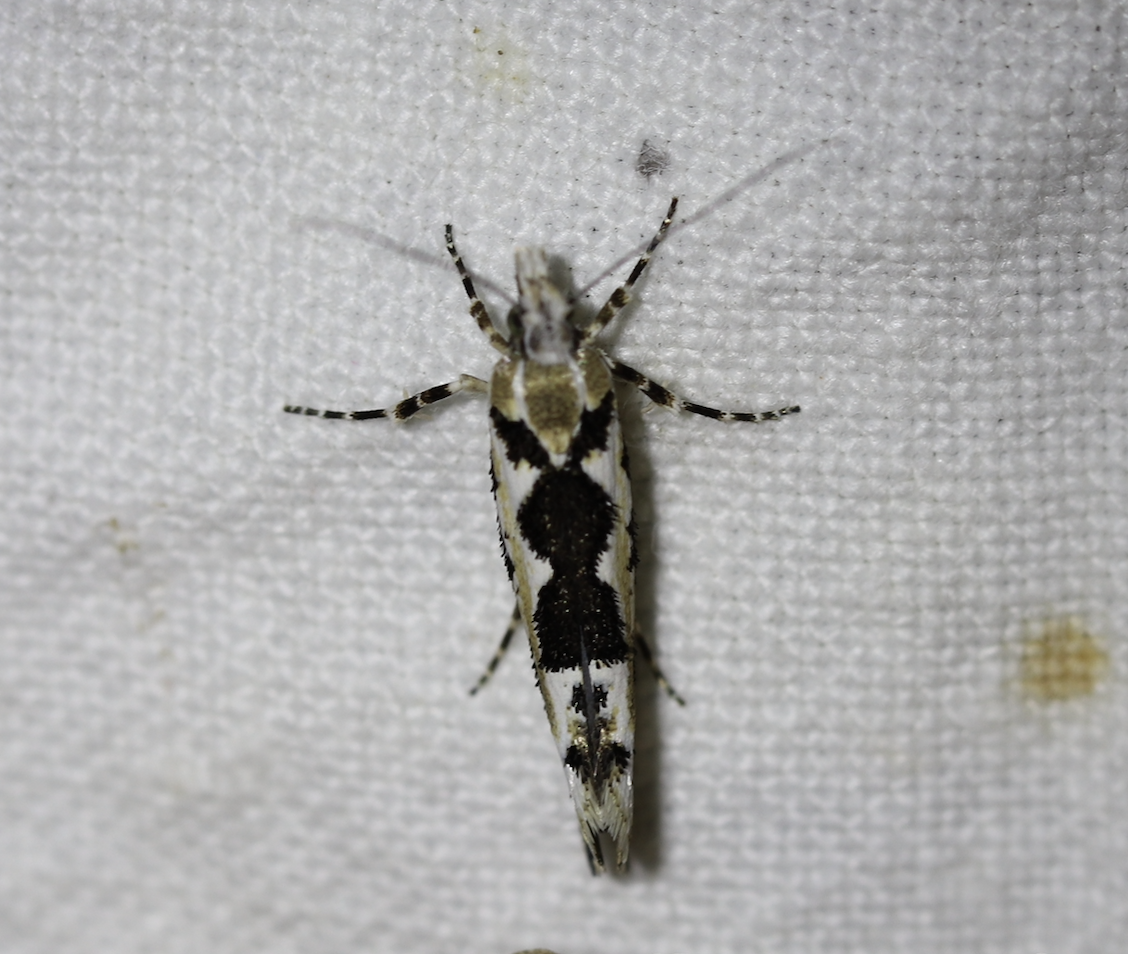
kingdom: Animalia
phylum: Arthropoda
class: Insecta
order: Lepidoptera
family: Plutellidae
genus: Ypsolophus
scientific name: Ypsolophus sequella
